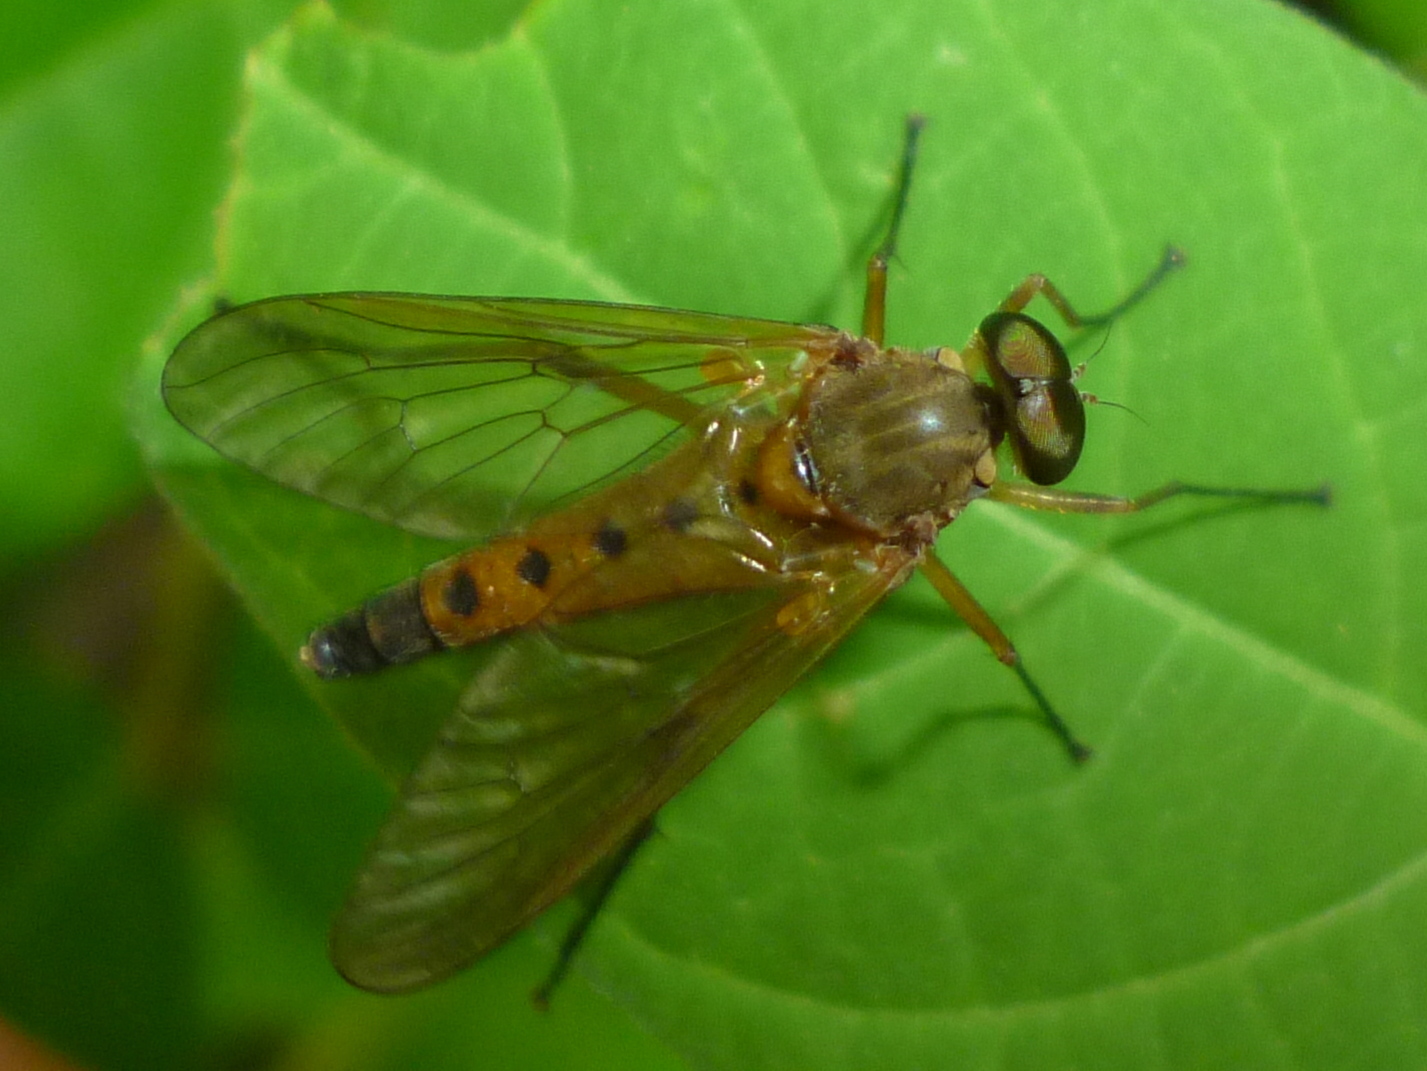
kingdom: Animalia
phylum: Arthropoda
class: Insecta
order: Diptera
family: Rhagionidae
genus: Rhagio
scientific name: Rhagio tringaria
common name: Marsh snipefly
